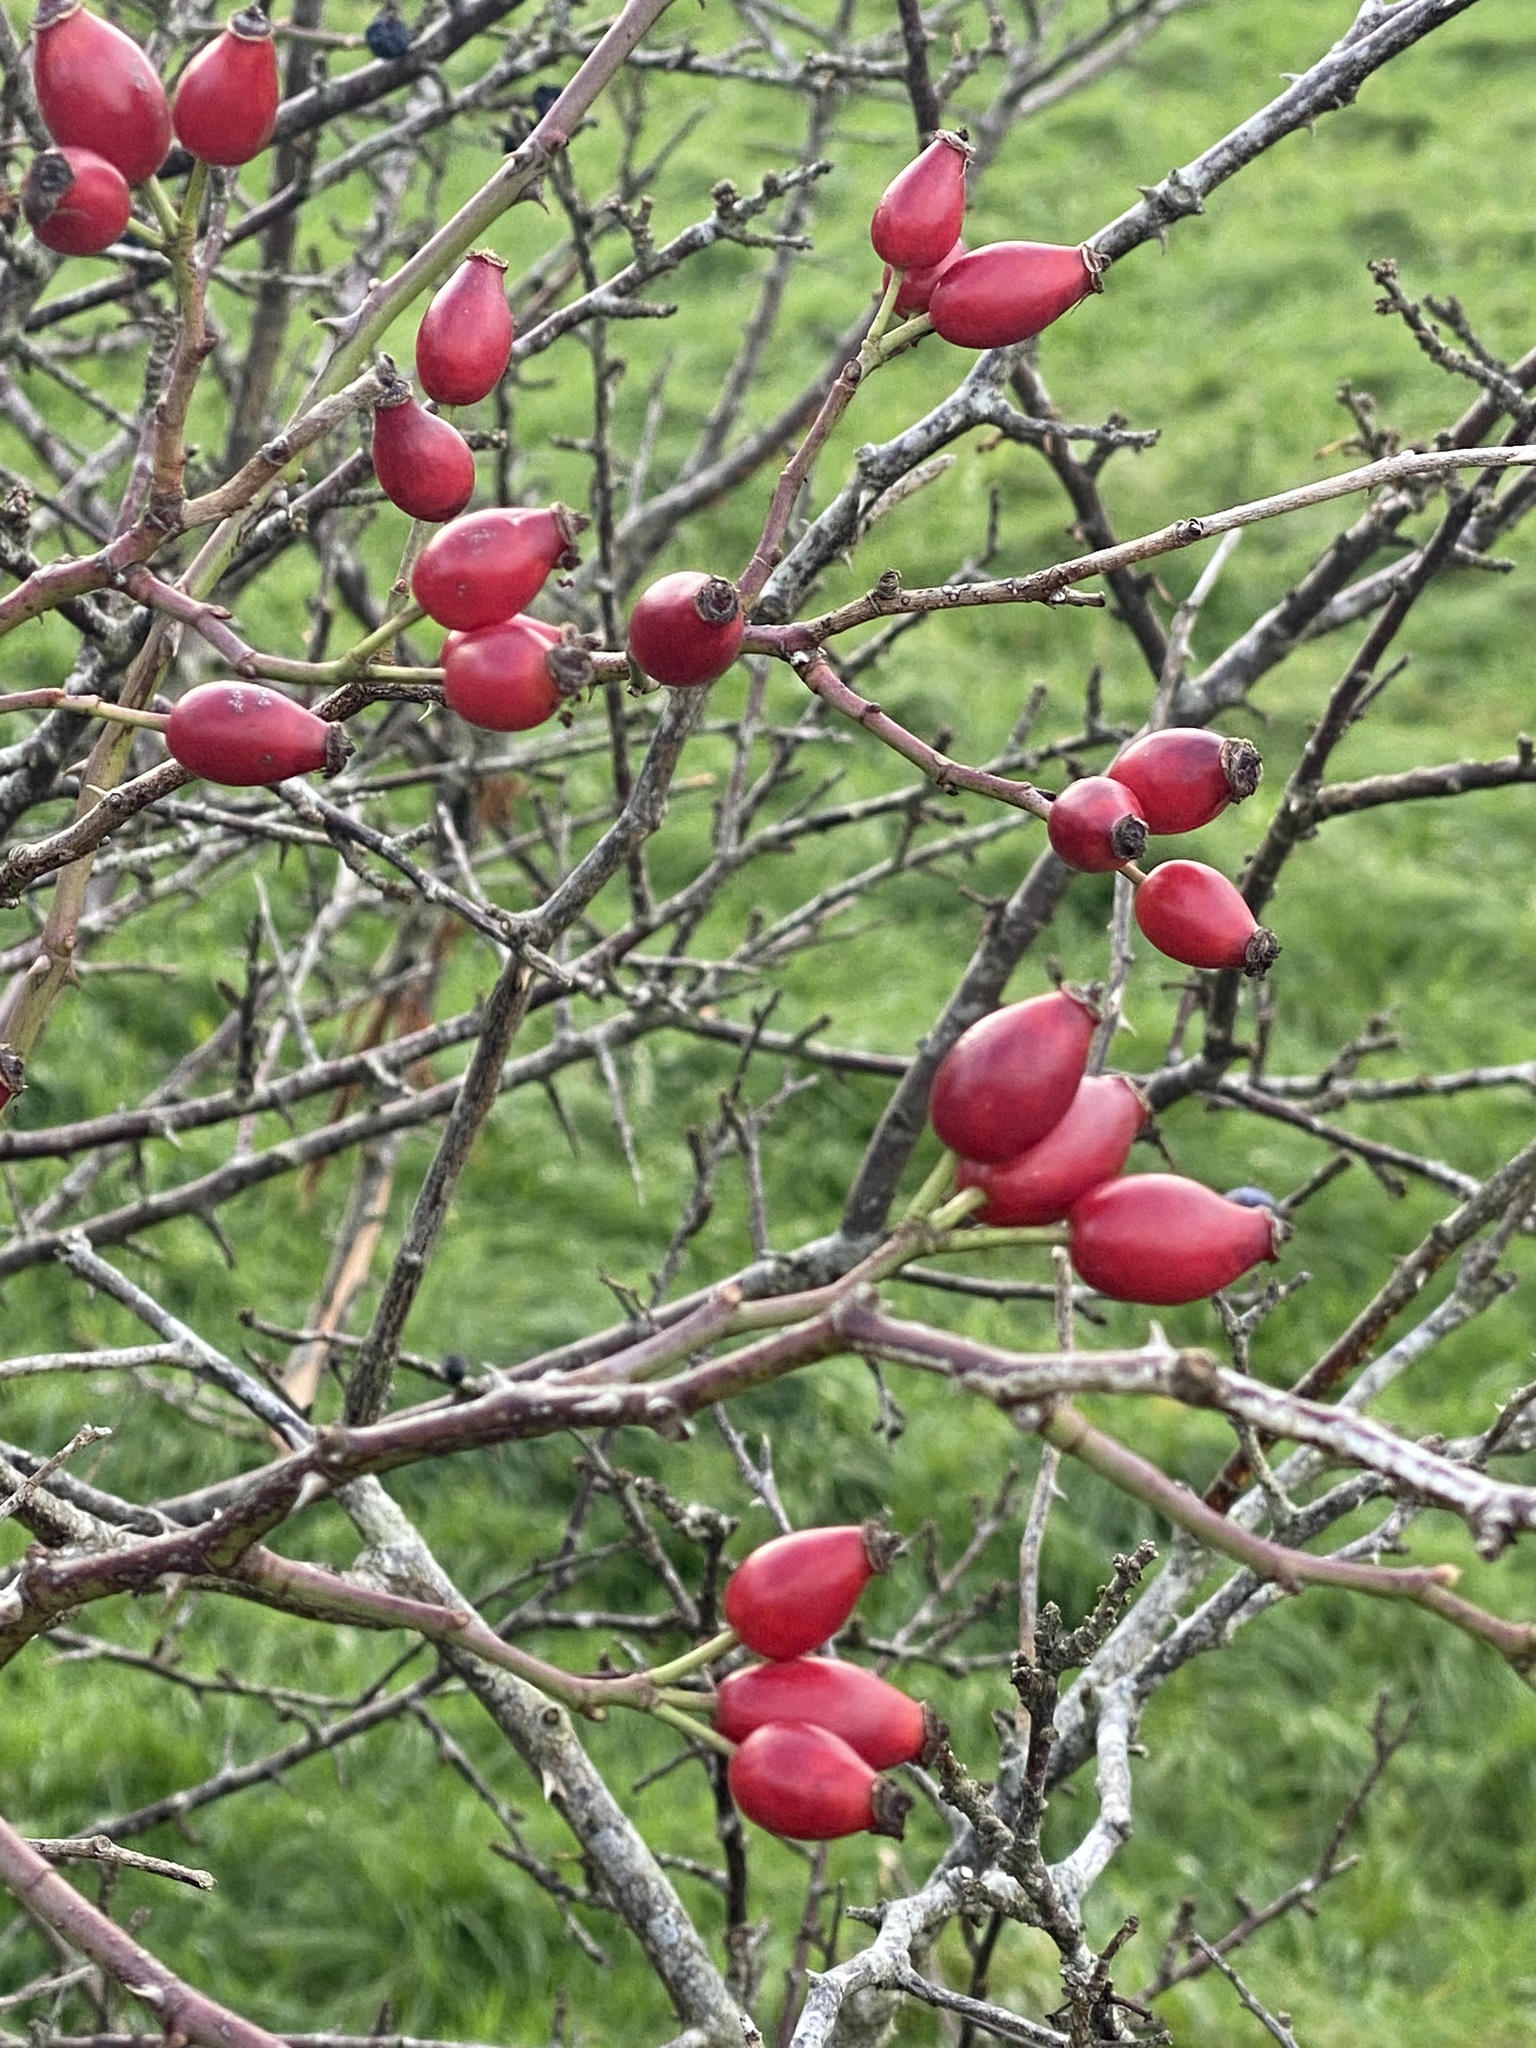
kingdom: Plantae
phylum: Tracheophyta
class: Magnoliopsida
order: Rosales
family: Rosaceae
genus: Rosa
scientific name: Rosa canina
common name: Dog rose
